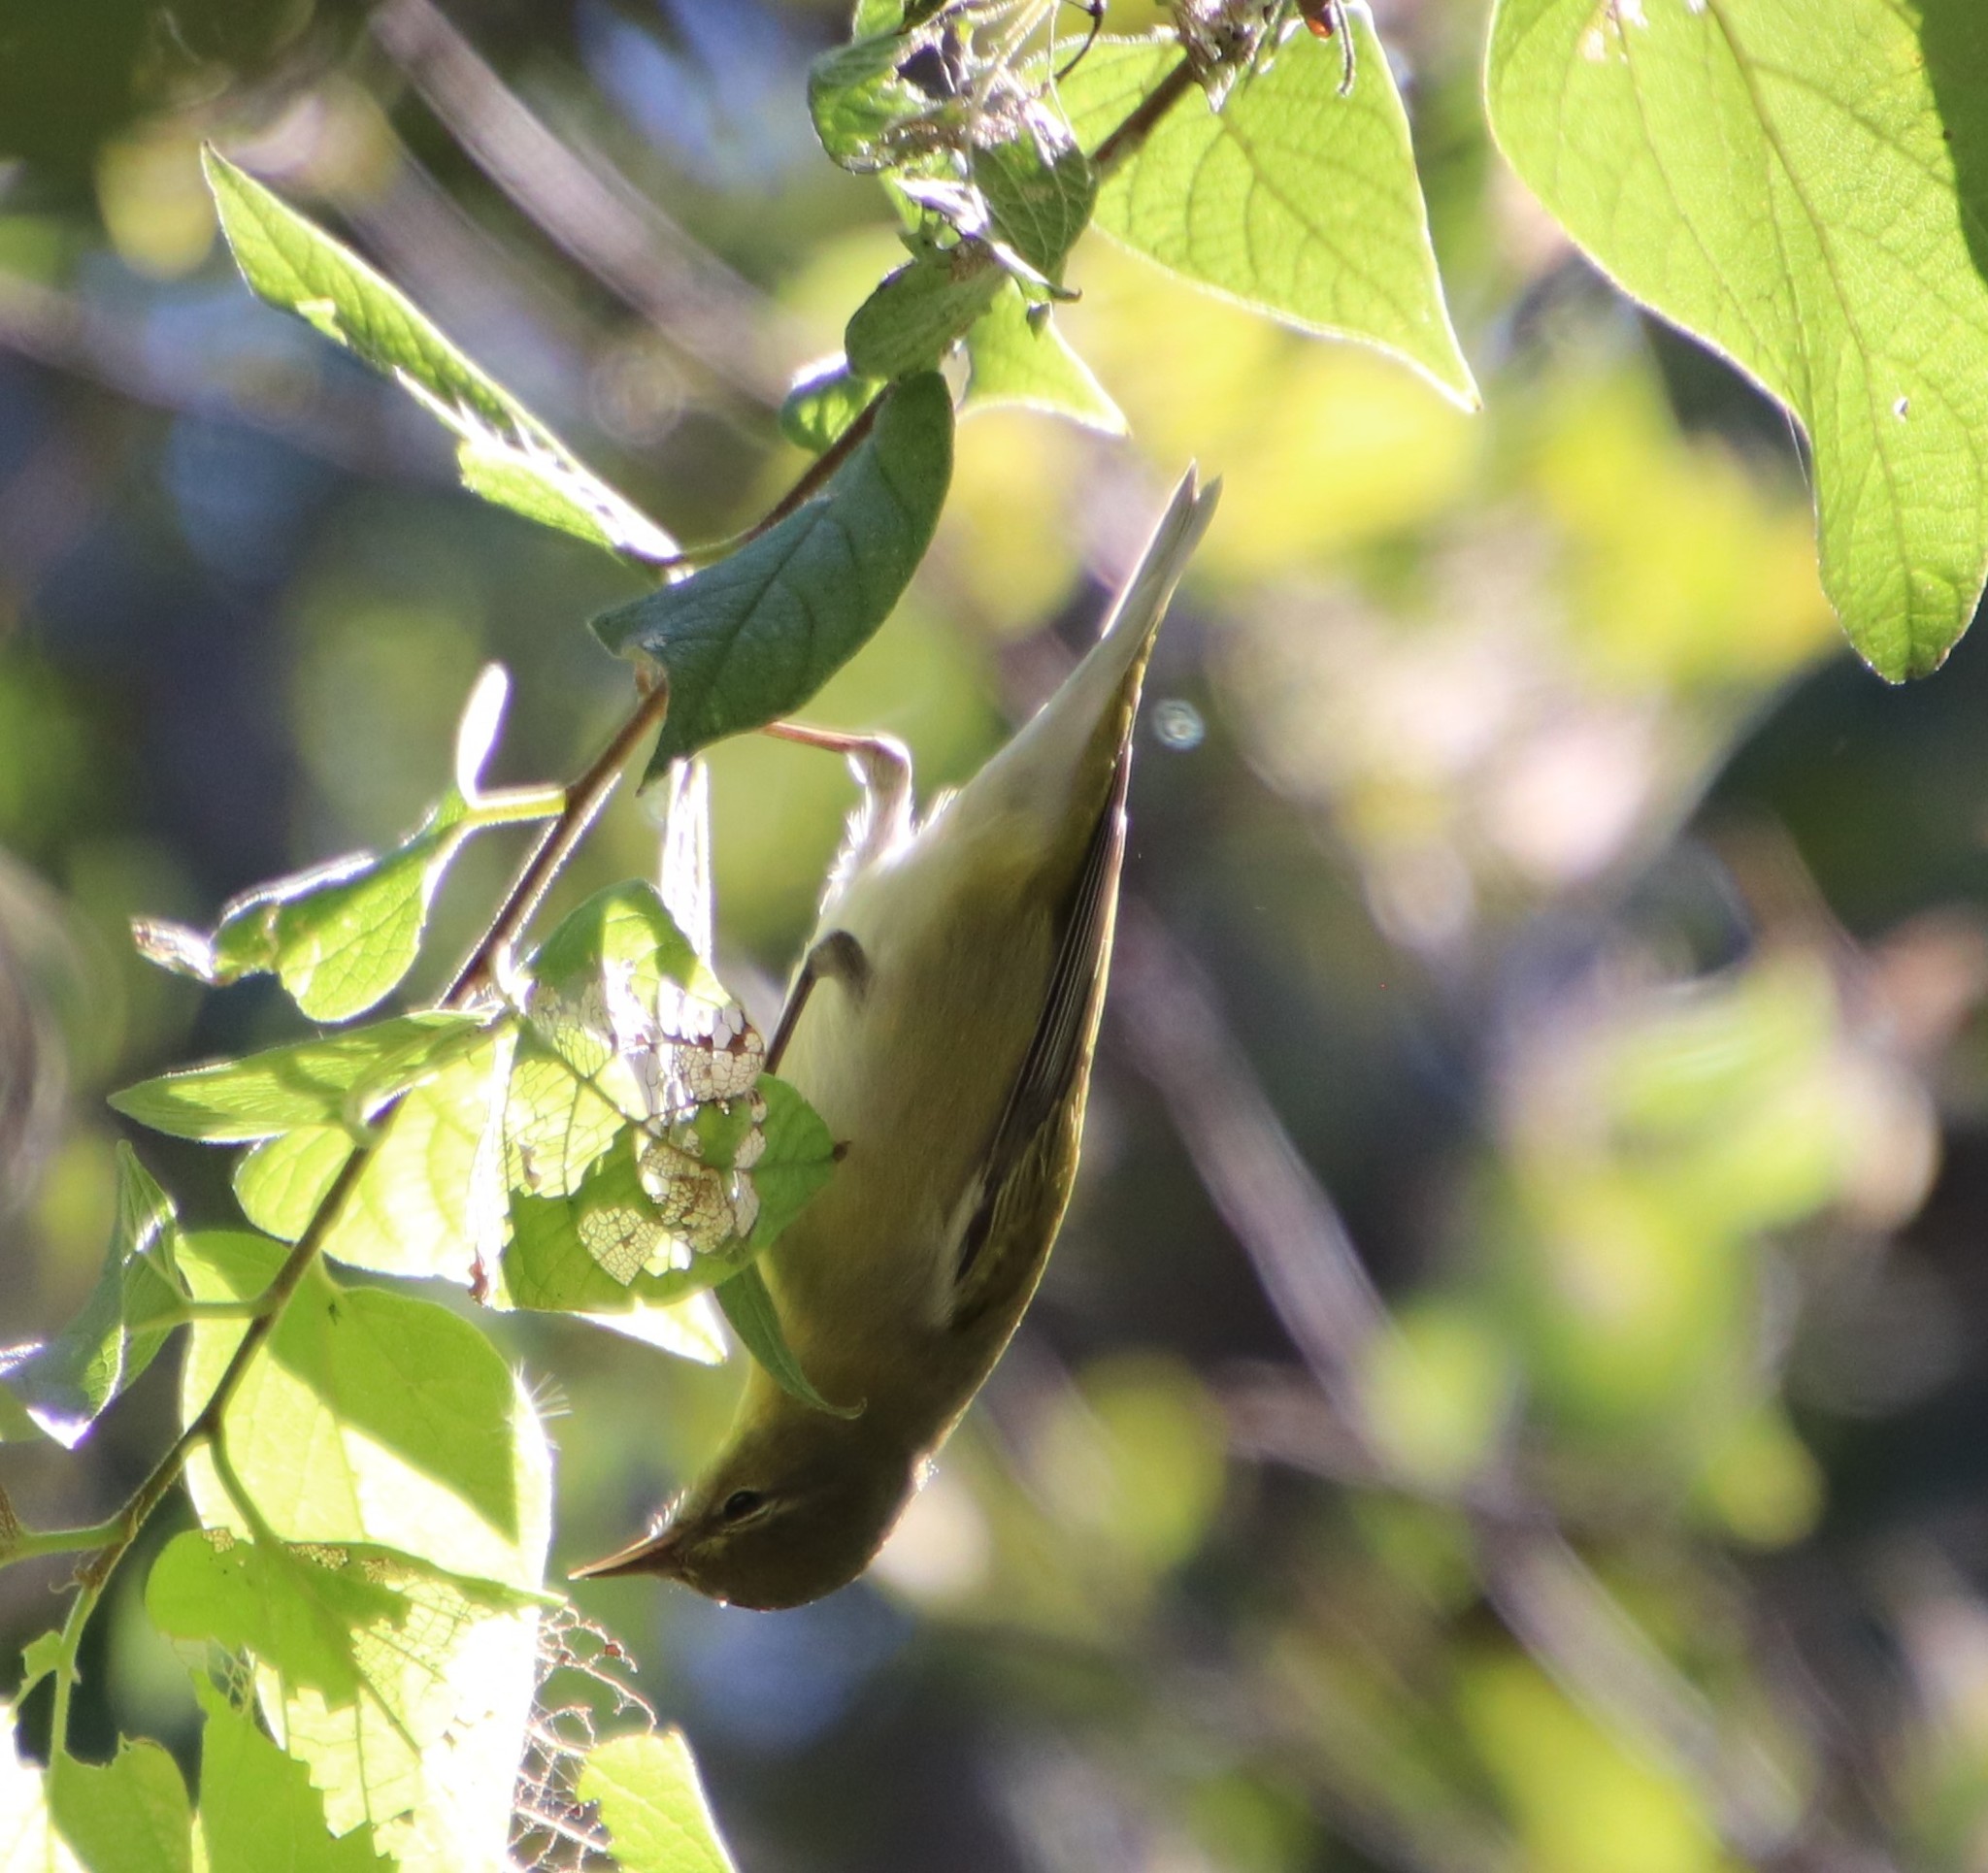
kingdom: Animalia
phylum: Chordata
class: Aves
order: Passeriformes
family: Parulidae
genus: Leiothlypis
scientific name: Leiothlypis peregrina
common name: Tennessee warbler
